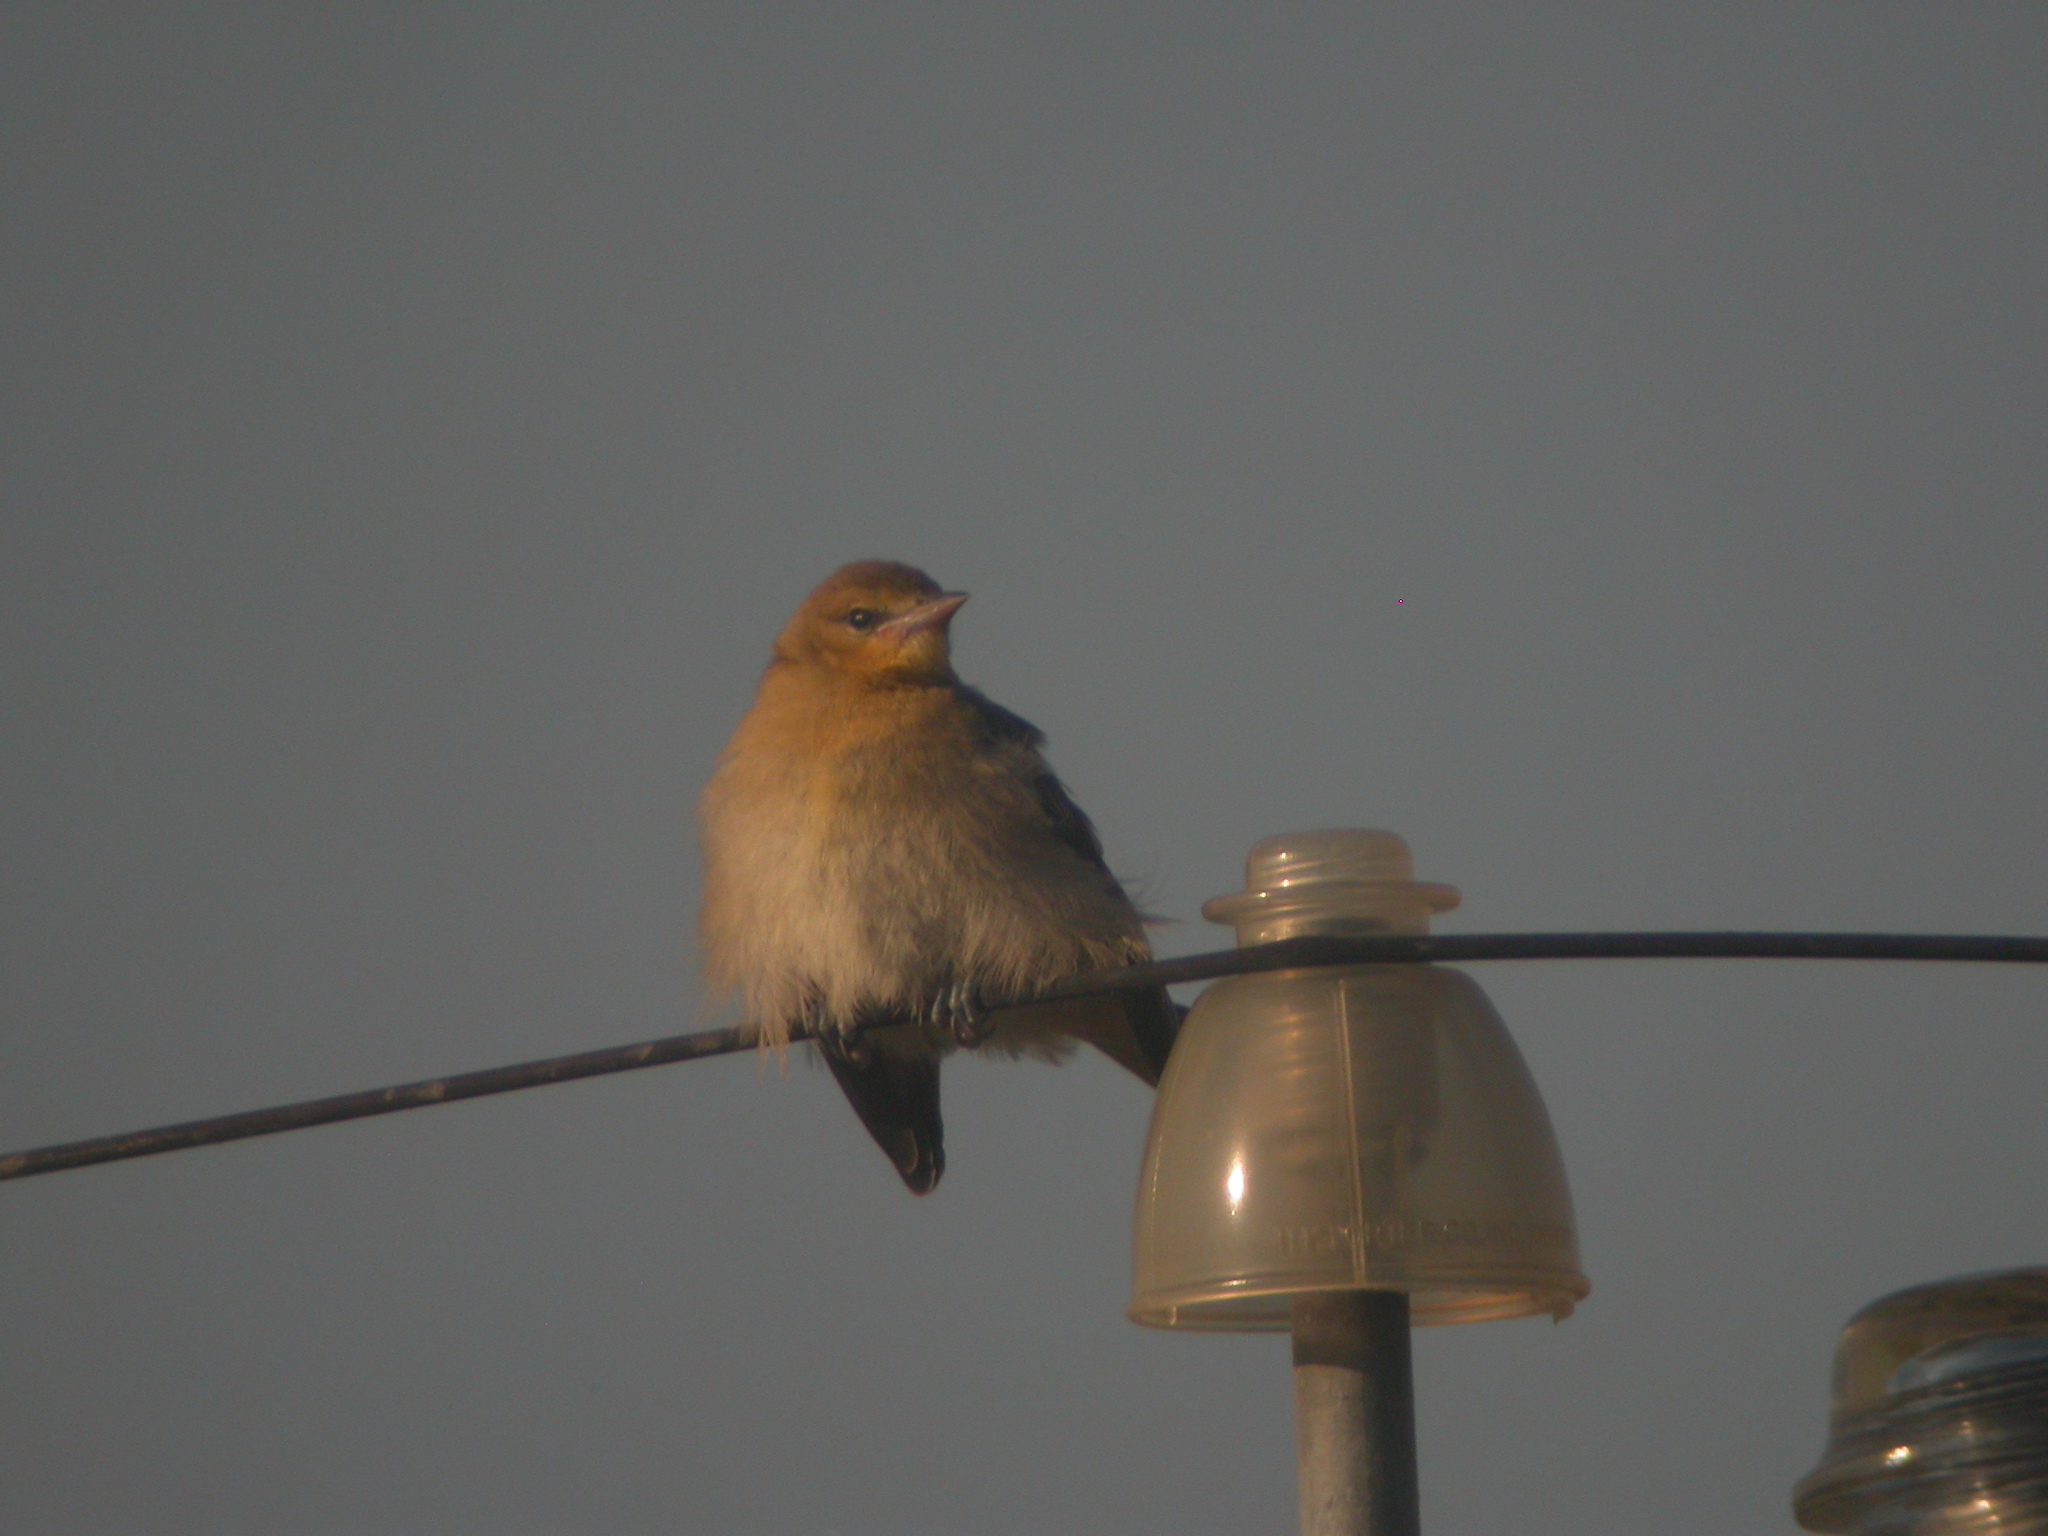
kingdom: Animalia
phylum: Chordata
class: Aves
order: Passeriformes
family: Icteridae
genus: Icterus
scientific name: Icterus bullockii
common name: Bullock's oriole
